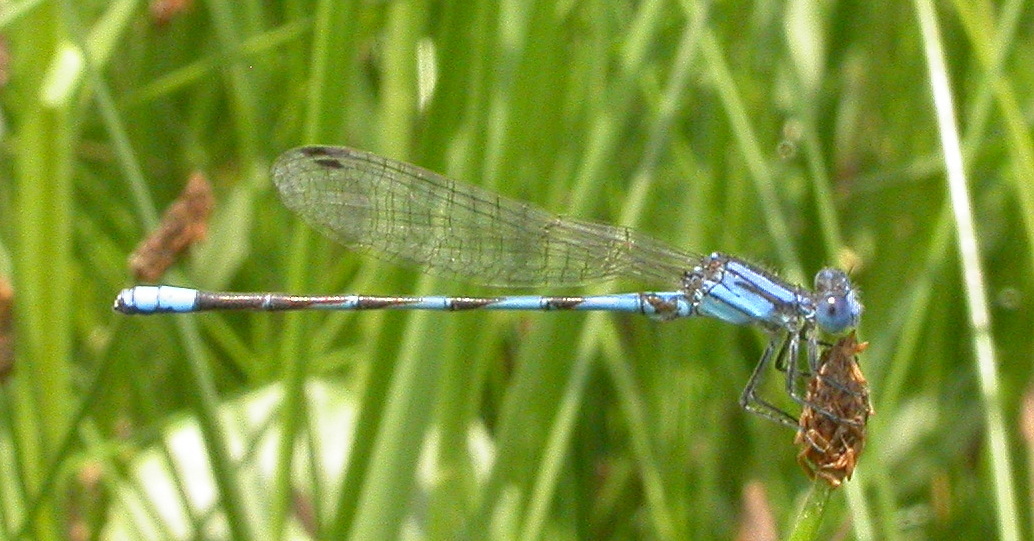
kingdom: Animalia
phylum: Arthropoda
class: Insecta
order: Odonata
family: Coenagrionidae
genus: Argia
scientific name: Argia leonorae
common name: Leonora's dancer
